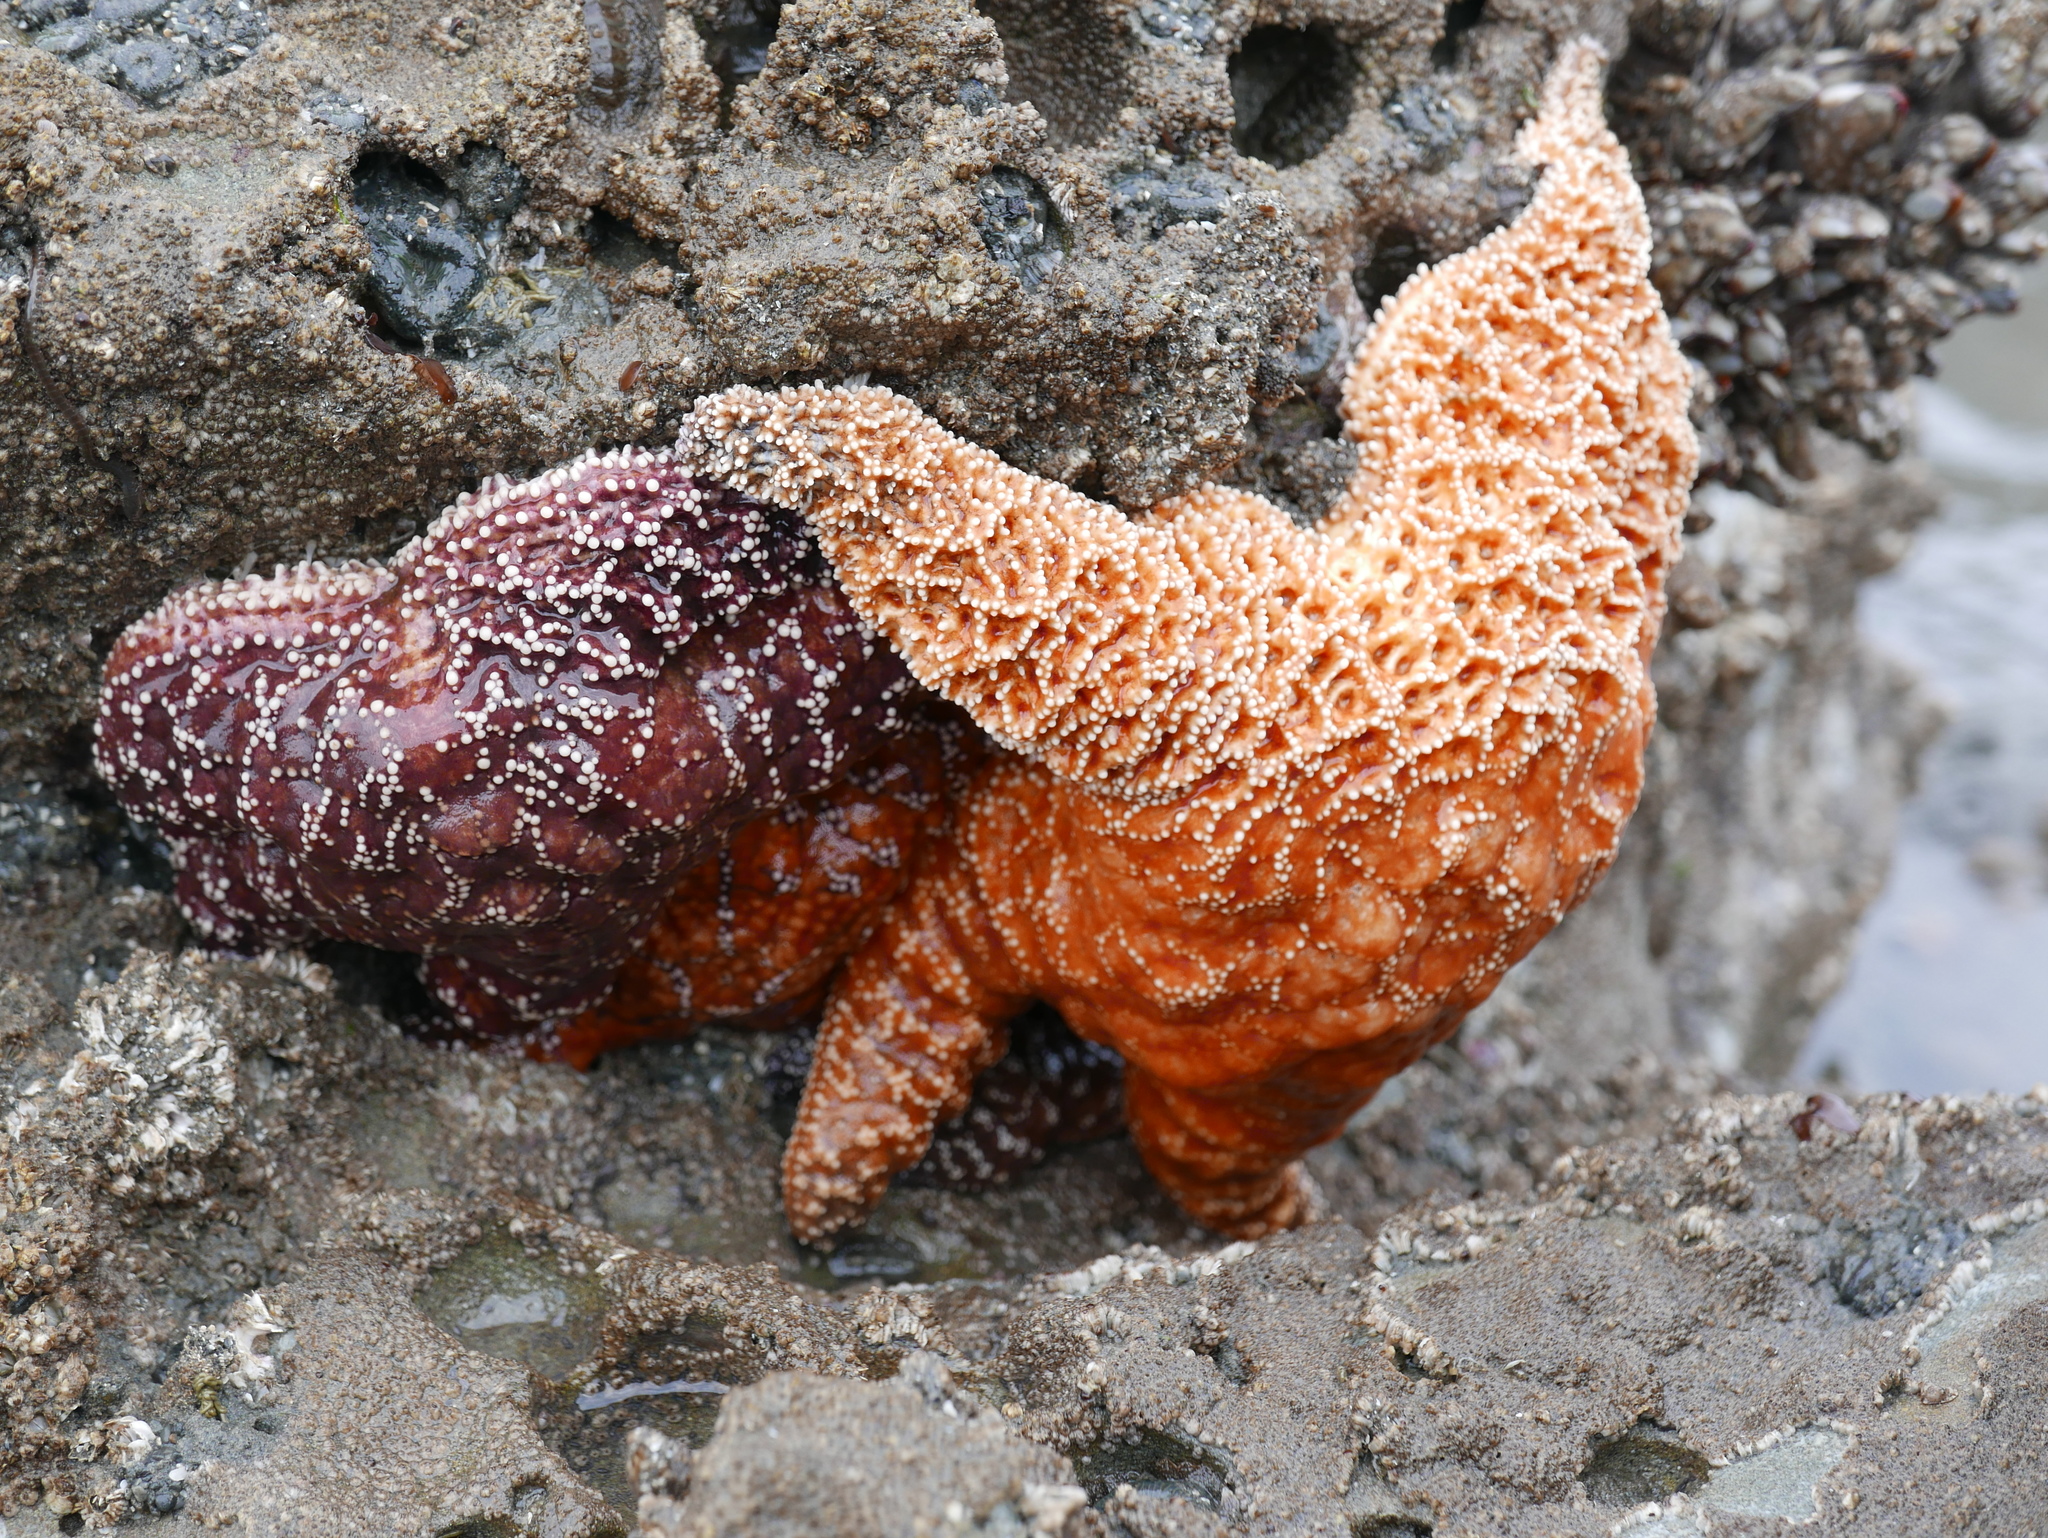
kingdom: Animalia
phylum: Echinodermata
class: Asteroidea
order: Forcipulatida
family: Asteriidae
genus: Pisaster
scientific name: Pisaster ochraceus
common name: Ochre stars
